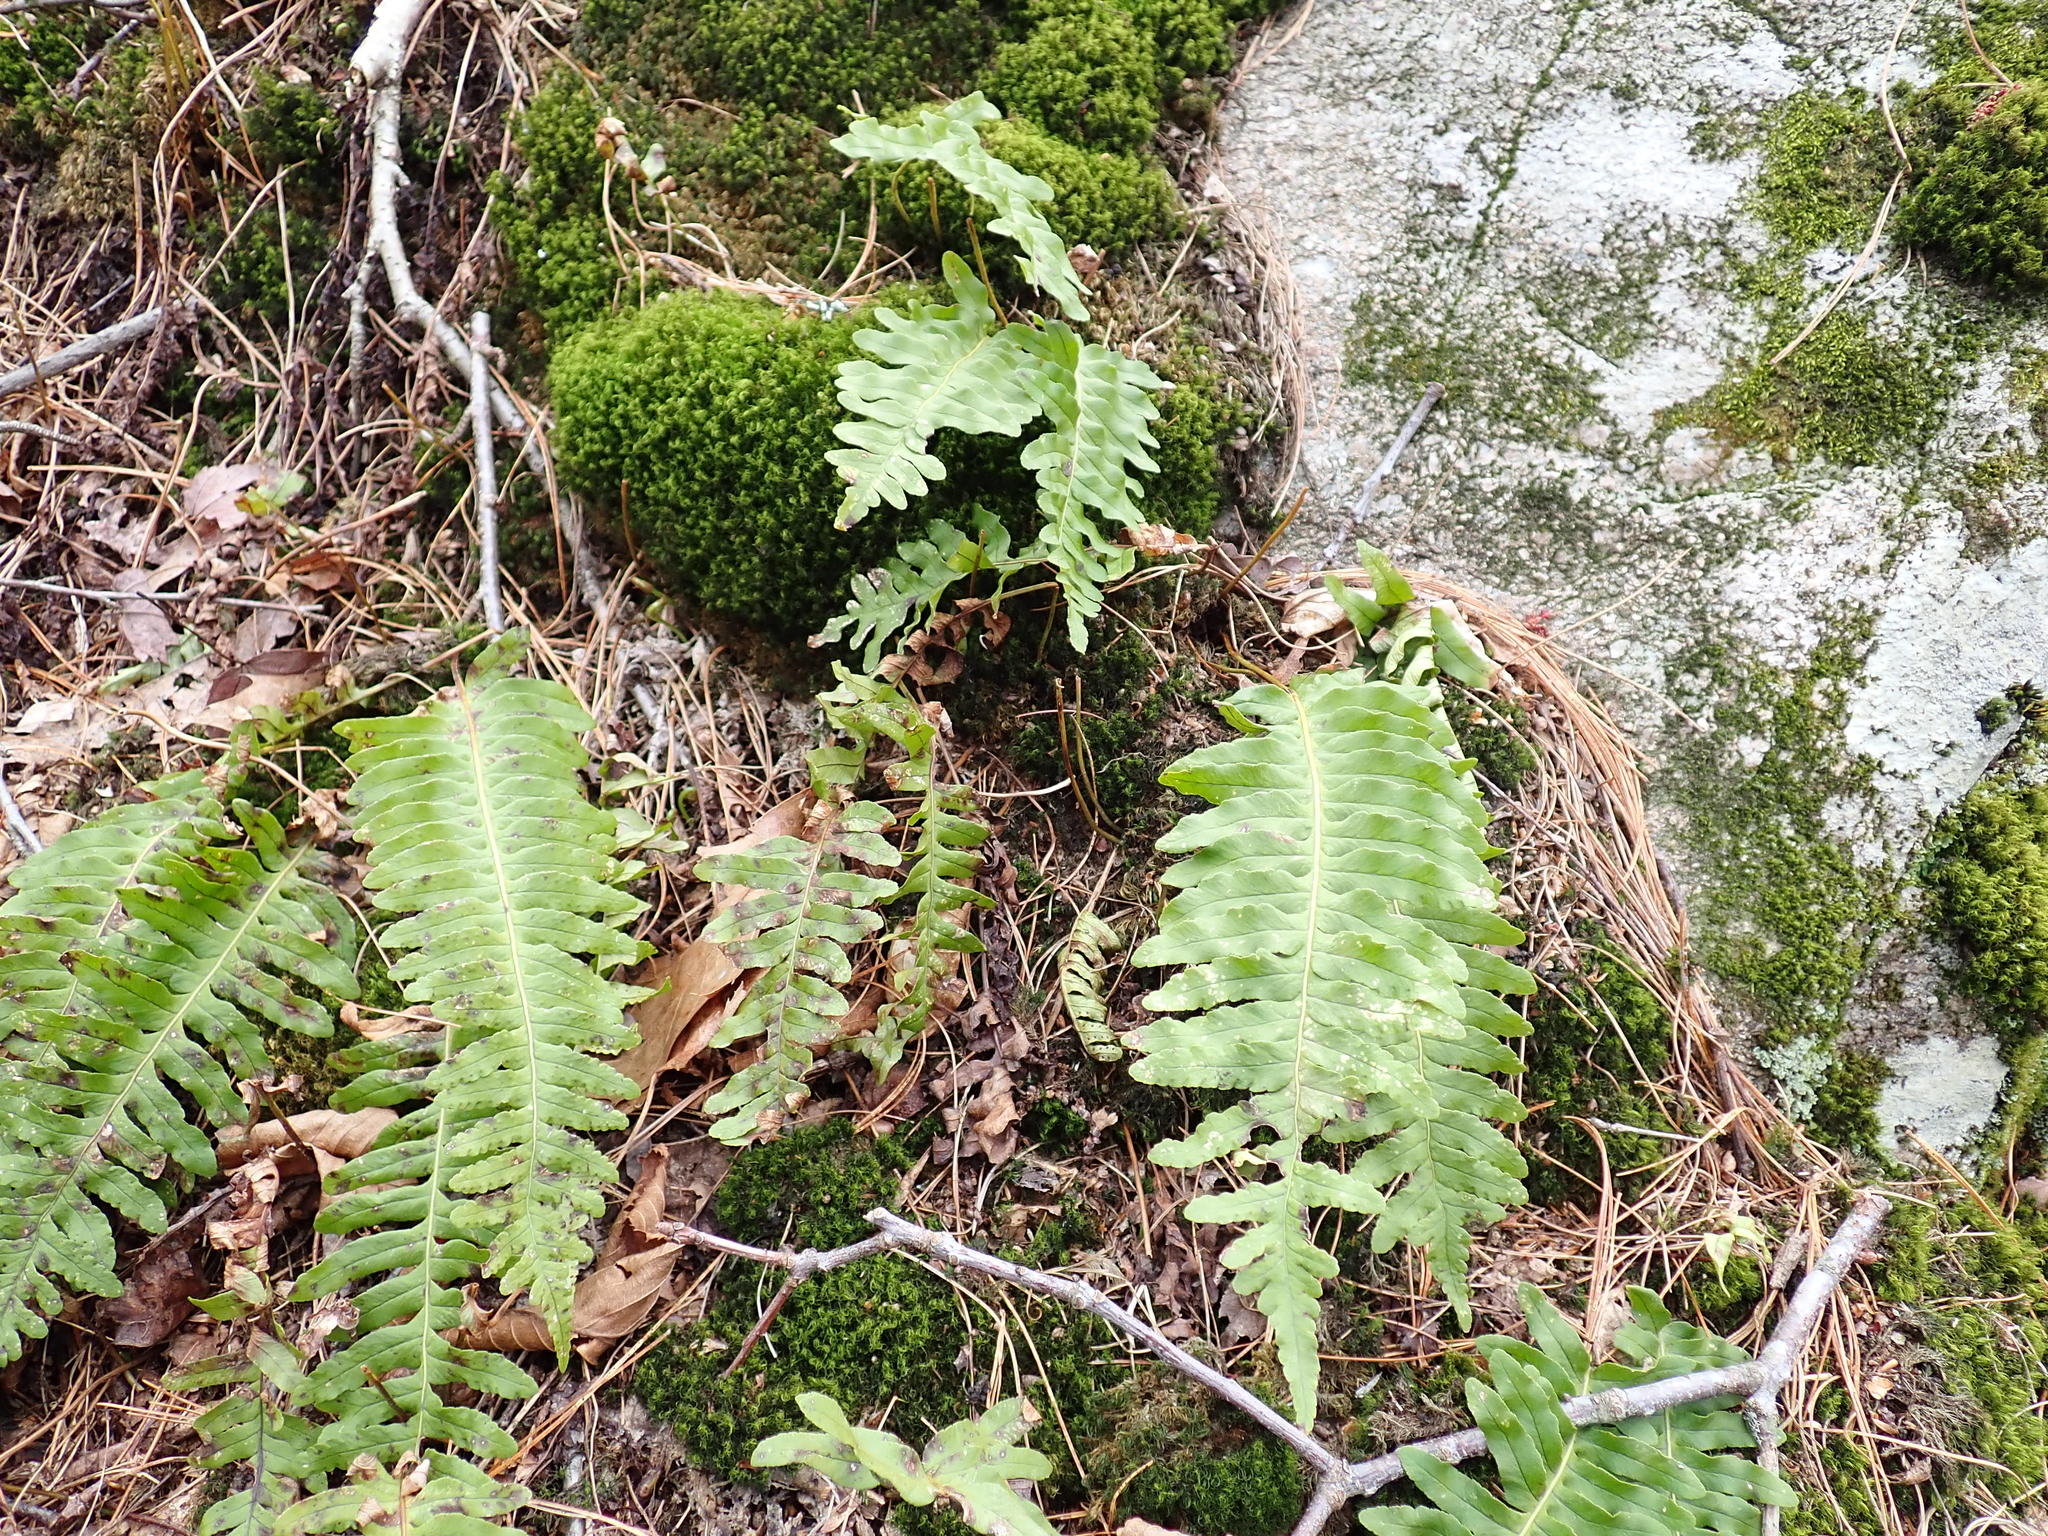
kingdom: Plantae
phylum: Tracheophyta
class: Polypodiopsida
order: Polypodiales
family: Polypodiaceae
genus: Polypodium
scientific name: Polypodium
